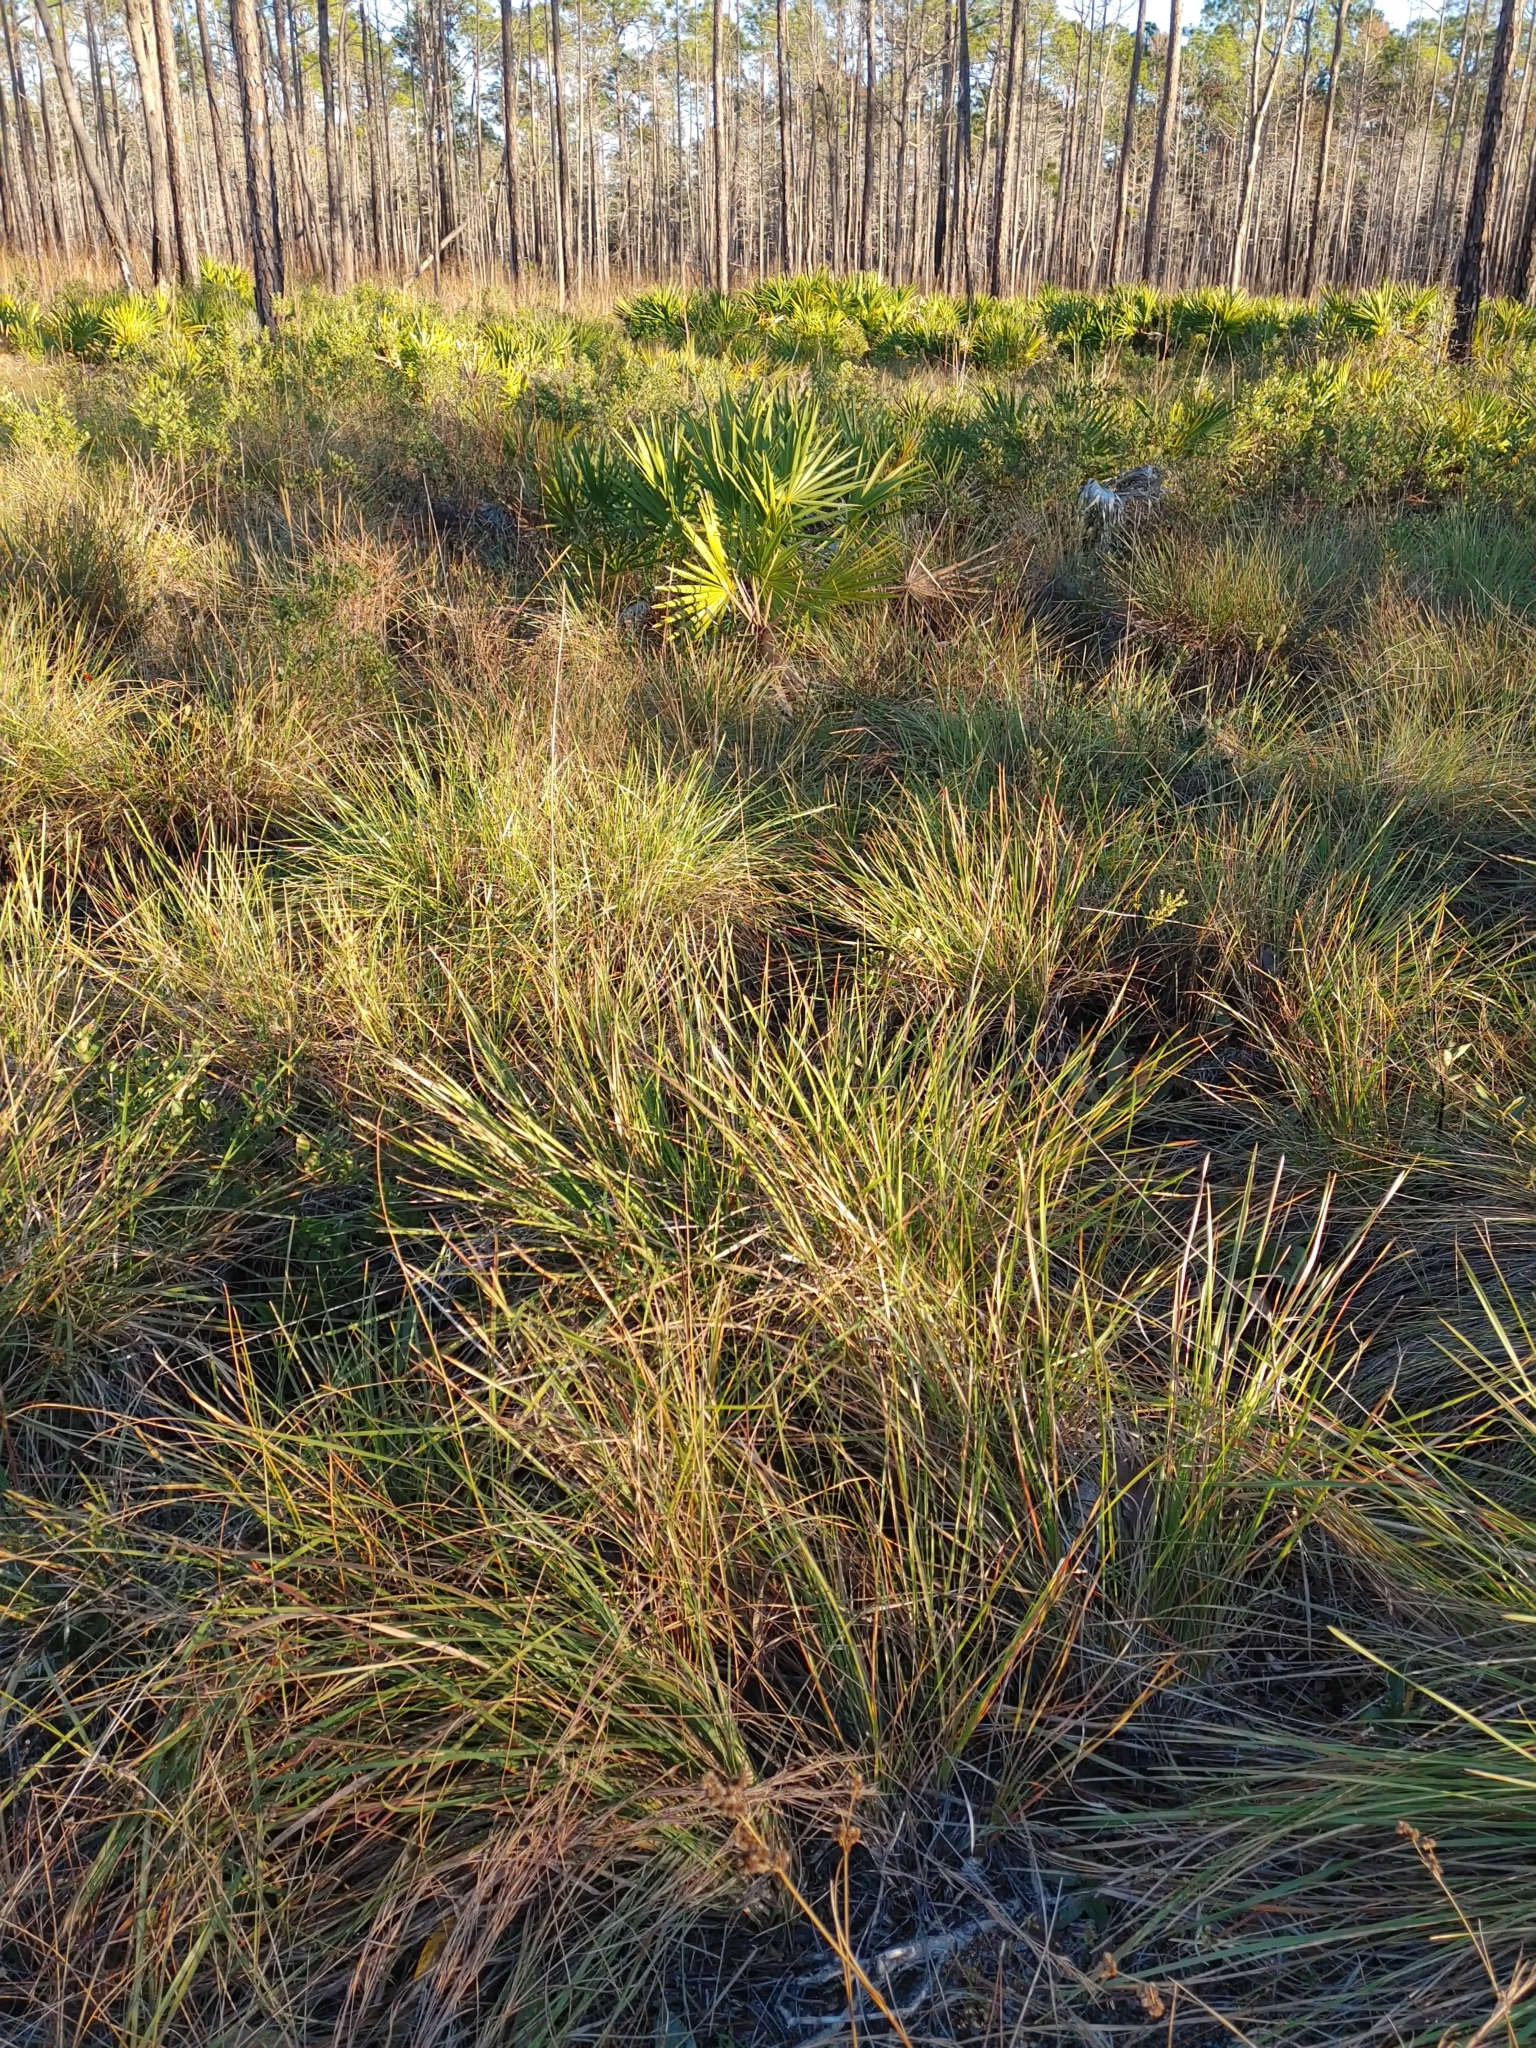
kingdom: Plantae
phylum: Tracheophyta
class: Liliopsida
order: Poales
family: Poaceae
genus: Sporobolus
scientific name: Sporobolus floridanus
